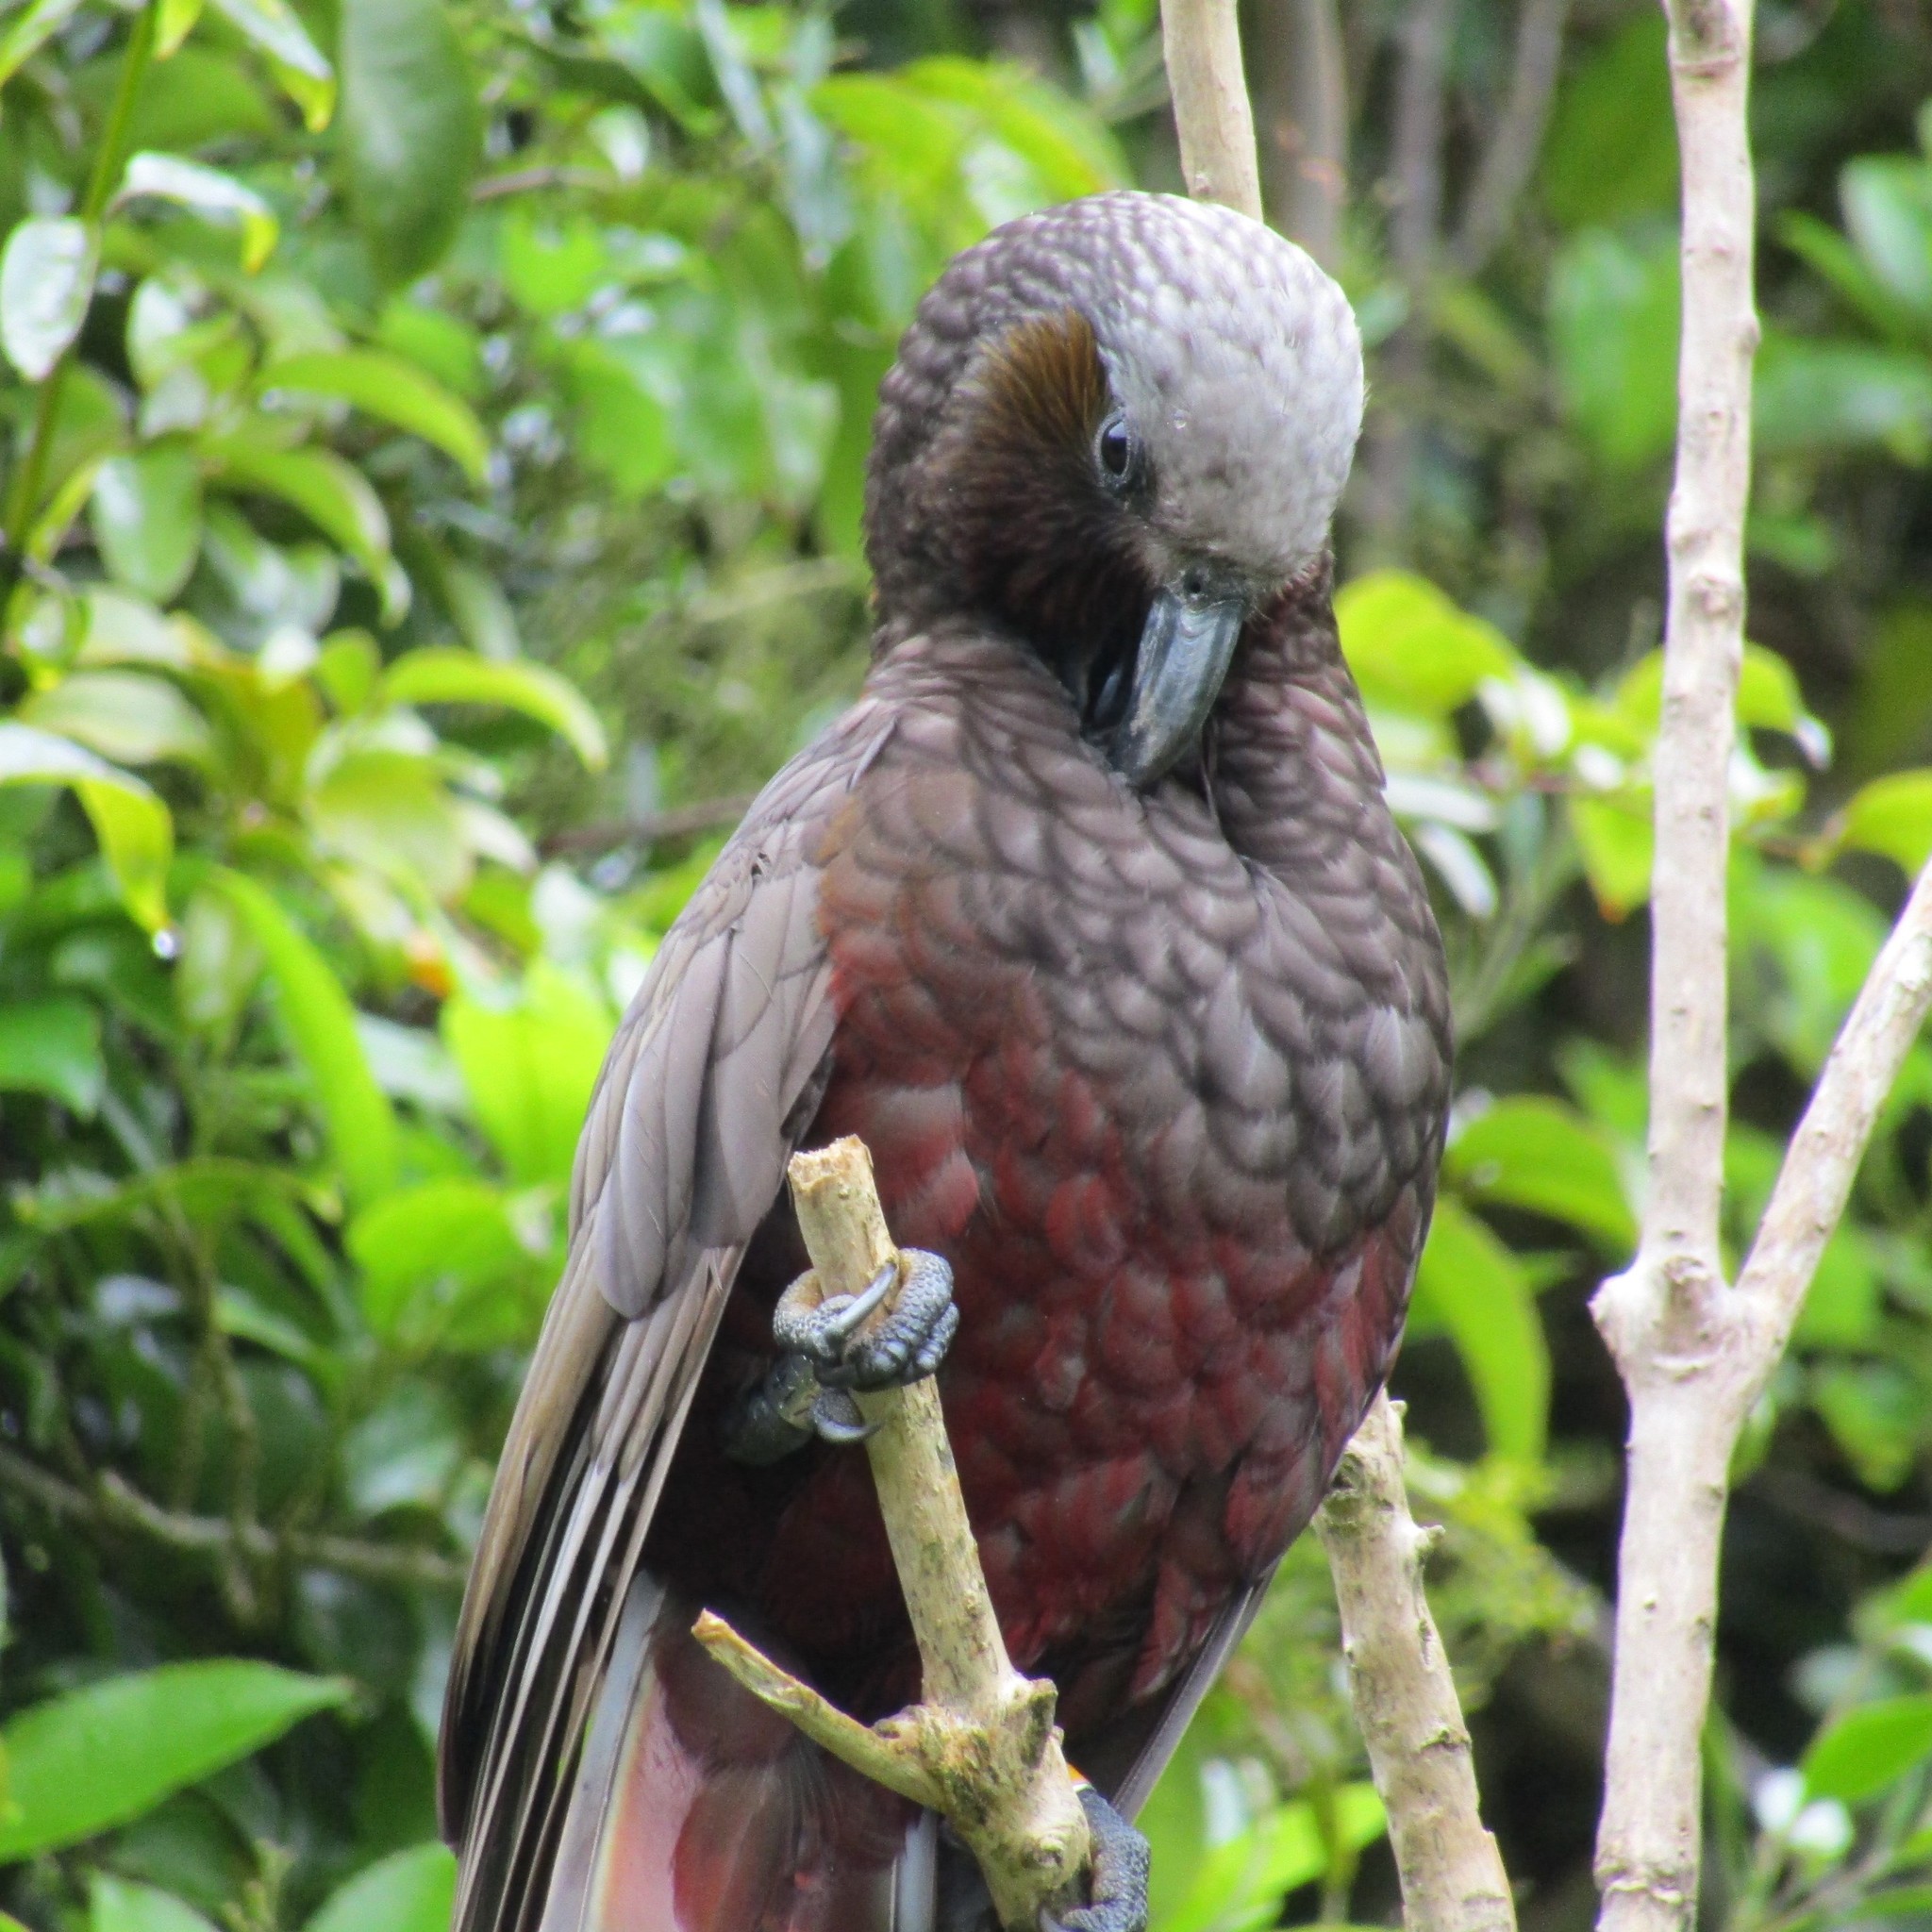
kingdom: Animalia
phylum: Chordata
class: Aves
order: Psittaciformes
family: Psittacidae
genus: Nestor
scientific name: Nestor meridionalis
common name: New zealand kaka
